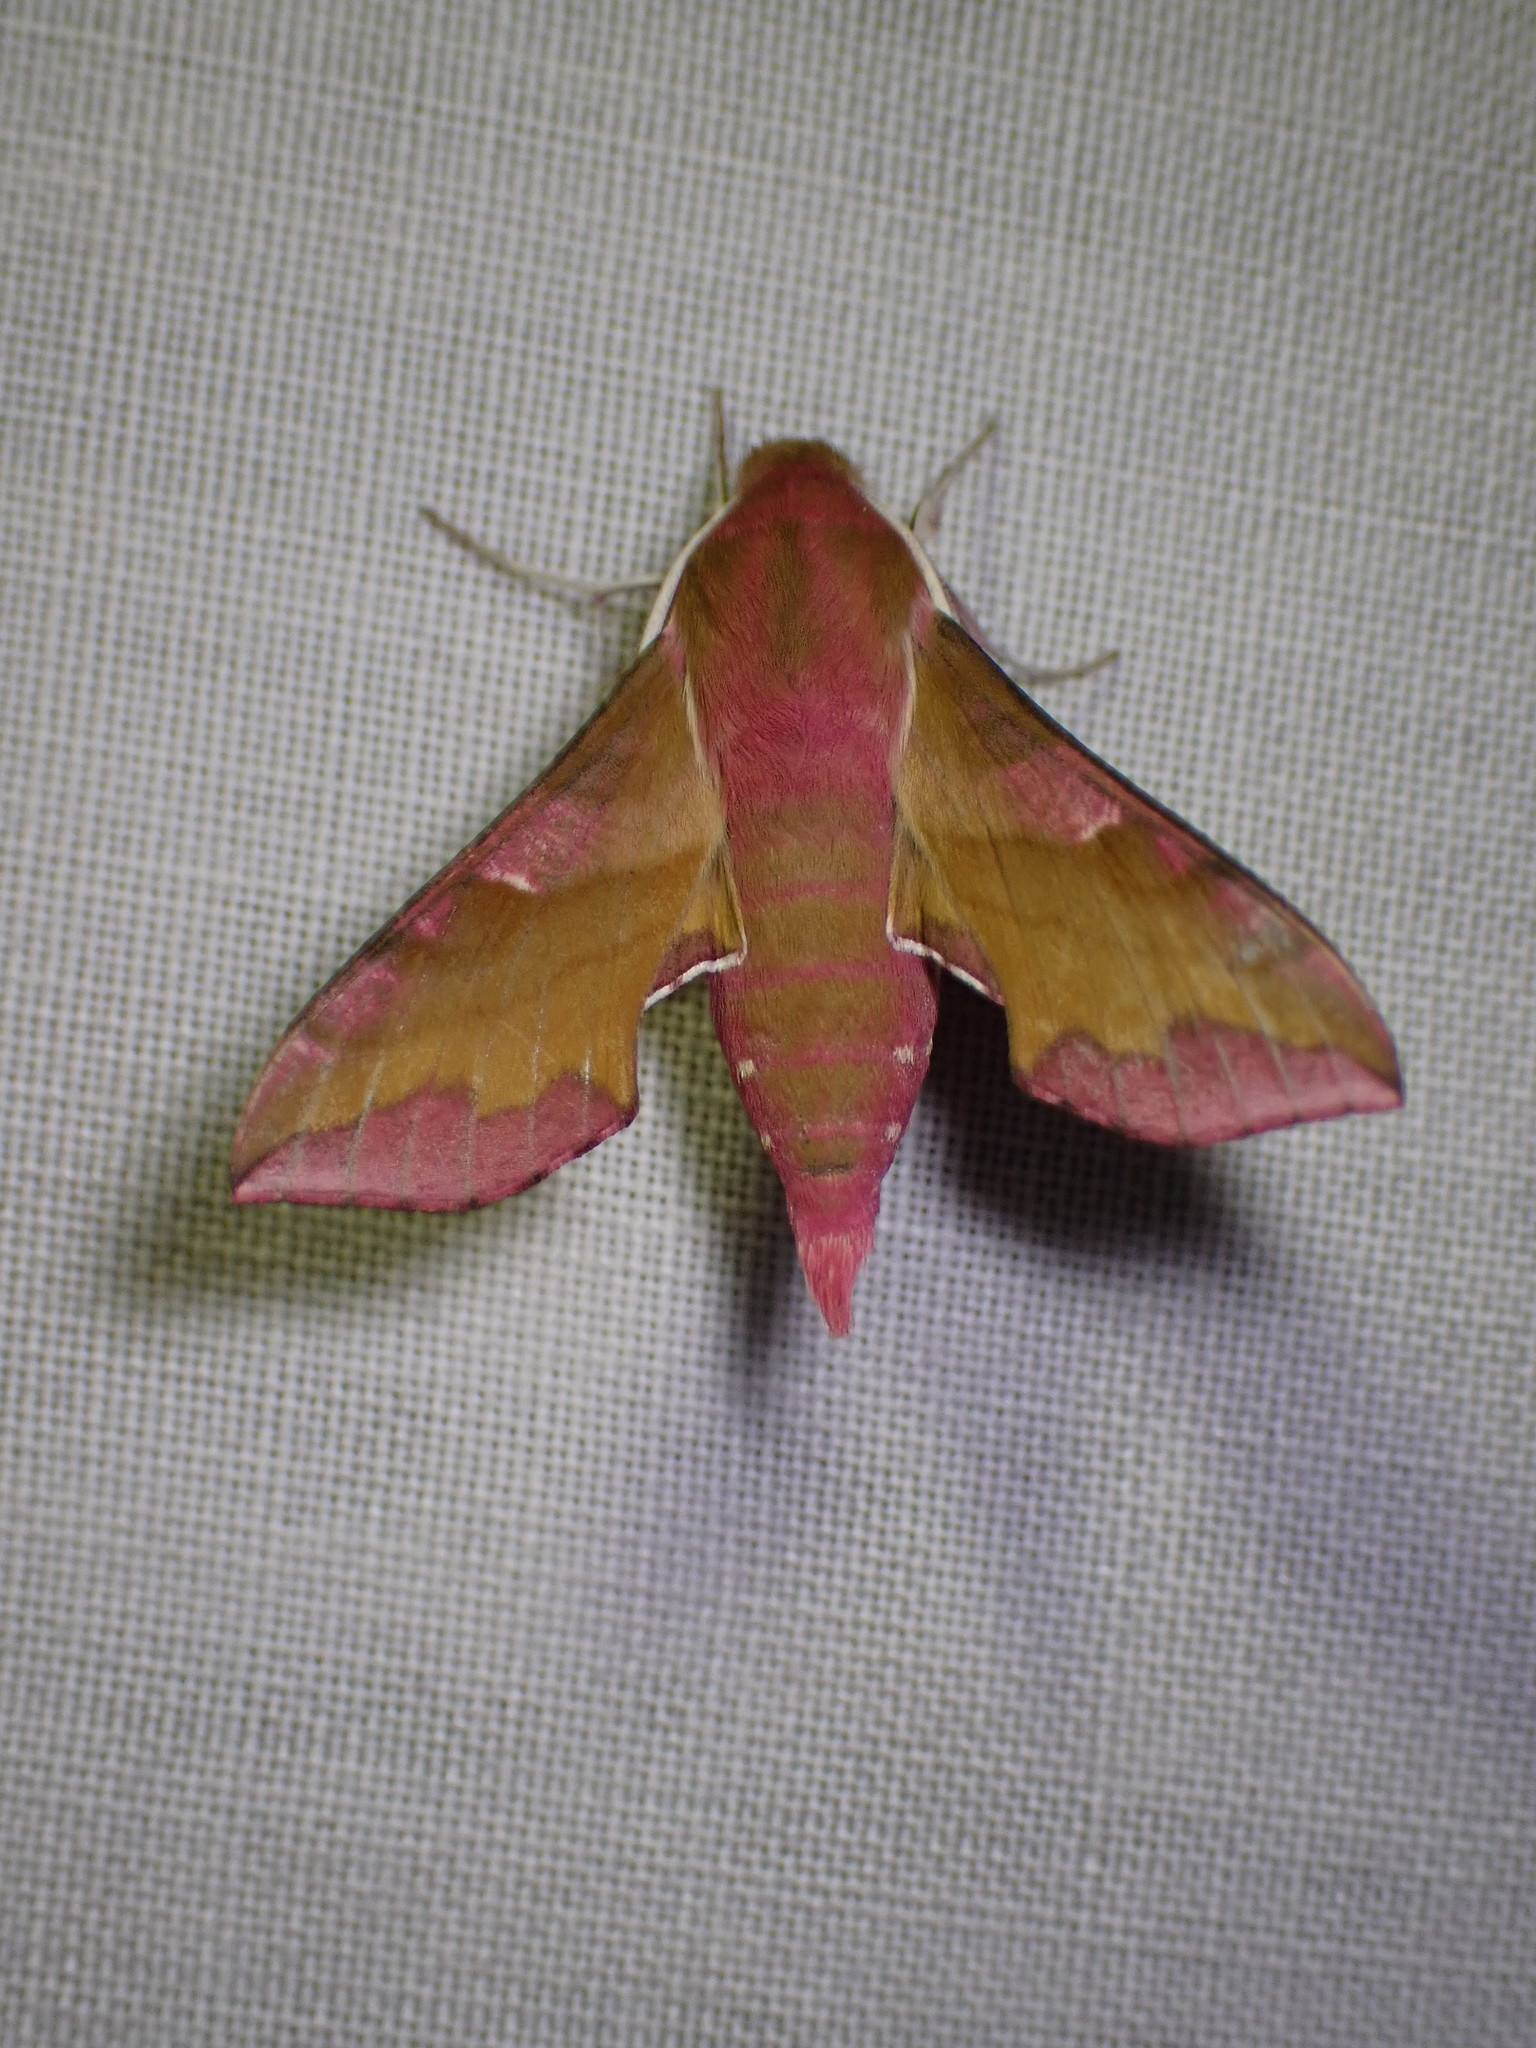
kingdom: Animalia
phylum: Arthropoda
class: Insecta
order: Lepidoptera
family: Sphingidae
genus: Deilephila
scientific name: Deilephila porcellus
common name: Small elephant hawk-moth
